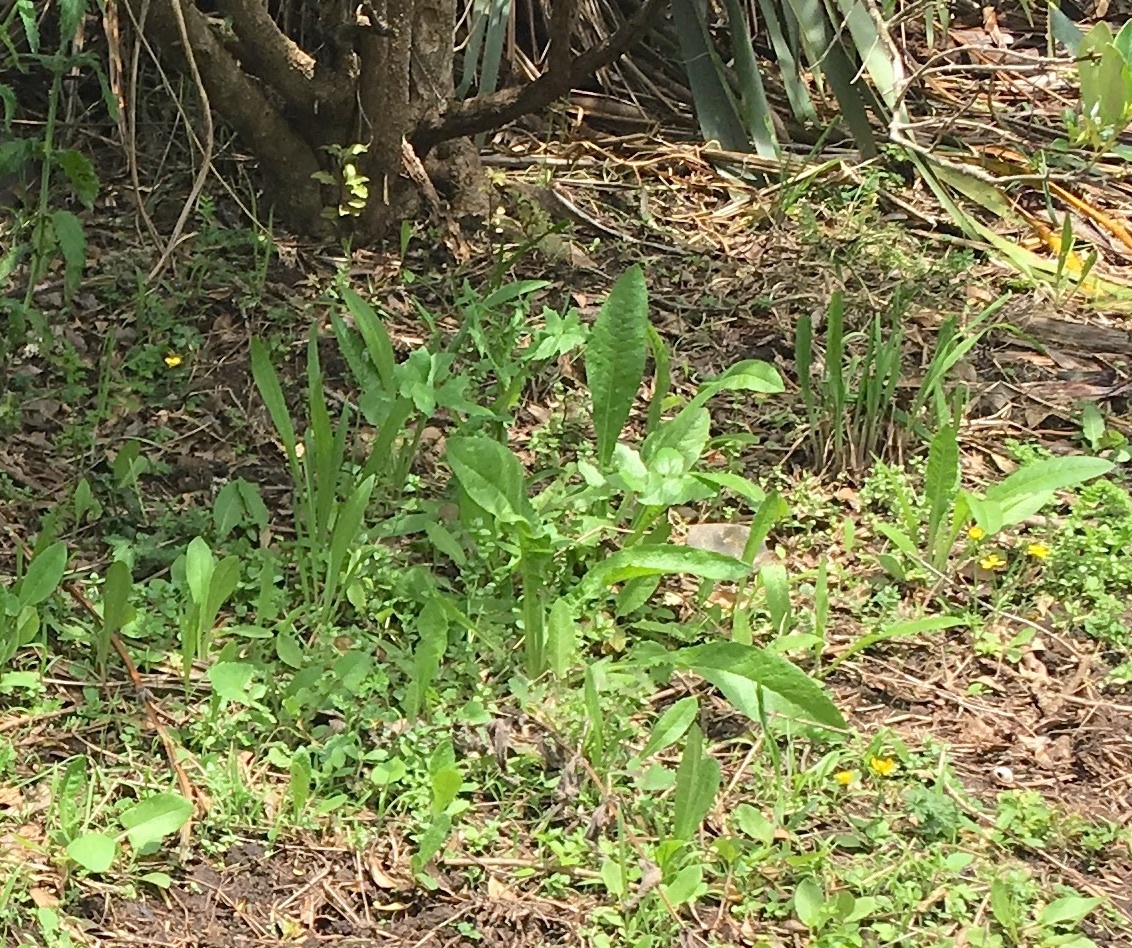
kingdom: Plantae
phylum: Tracheophyta
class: Magnoliopsida
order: Asterales
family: Asteraceae
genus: Helminthotheca
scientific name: Helminthotheca echioides
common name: Ox-tongue
